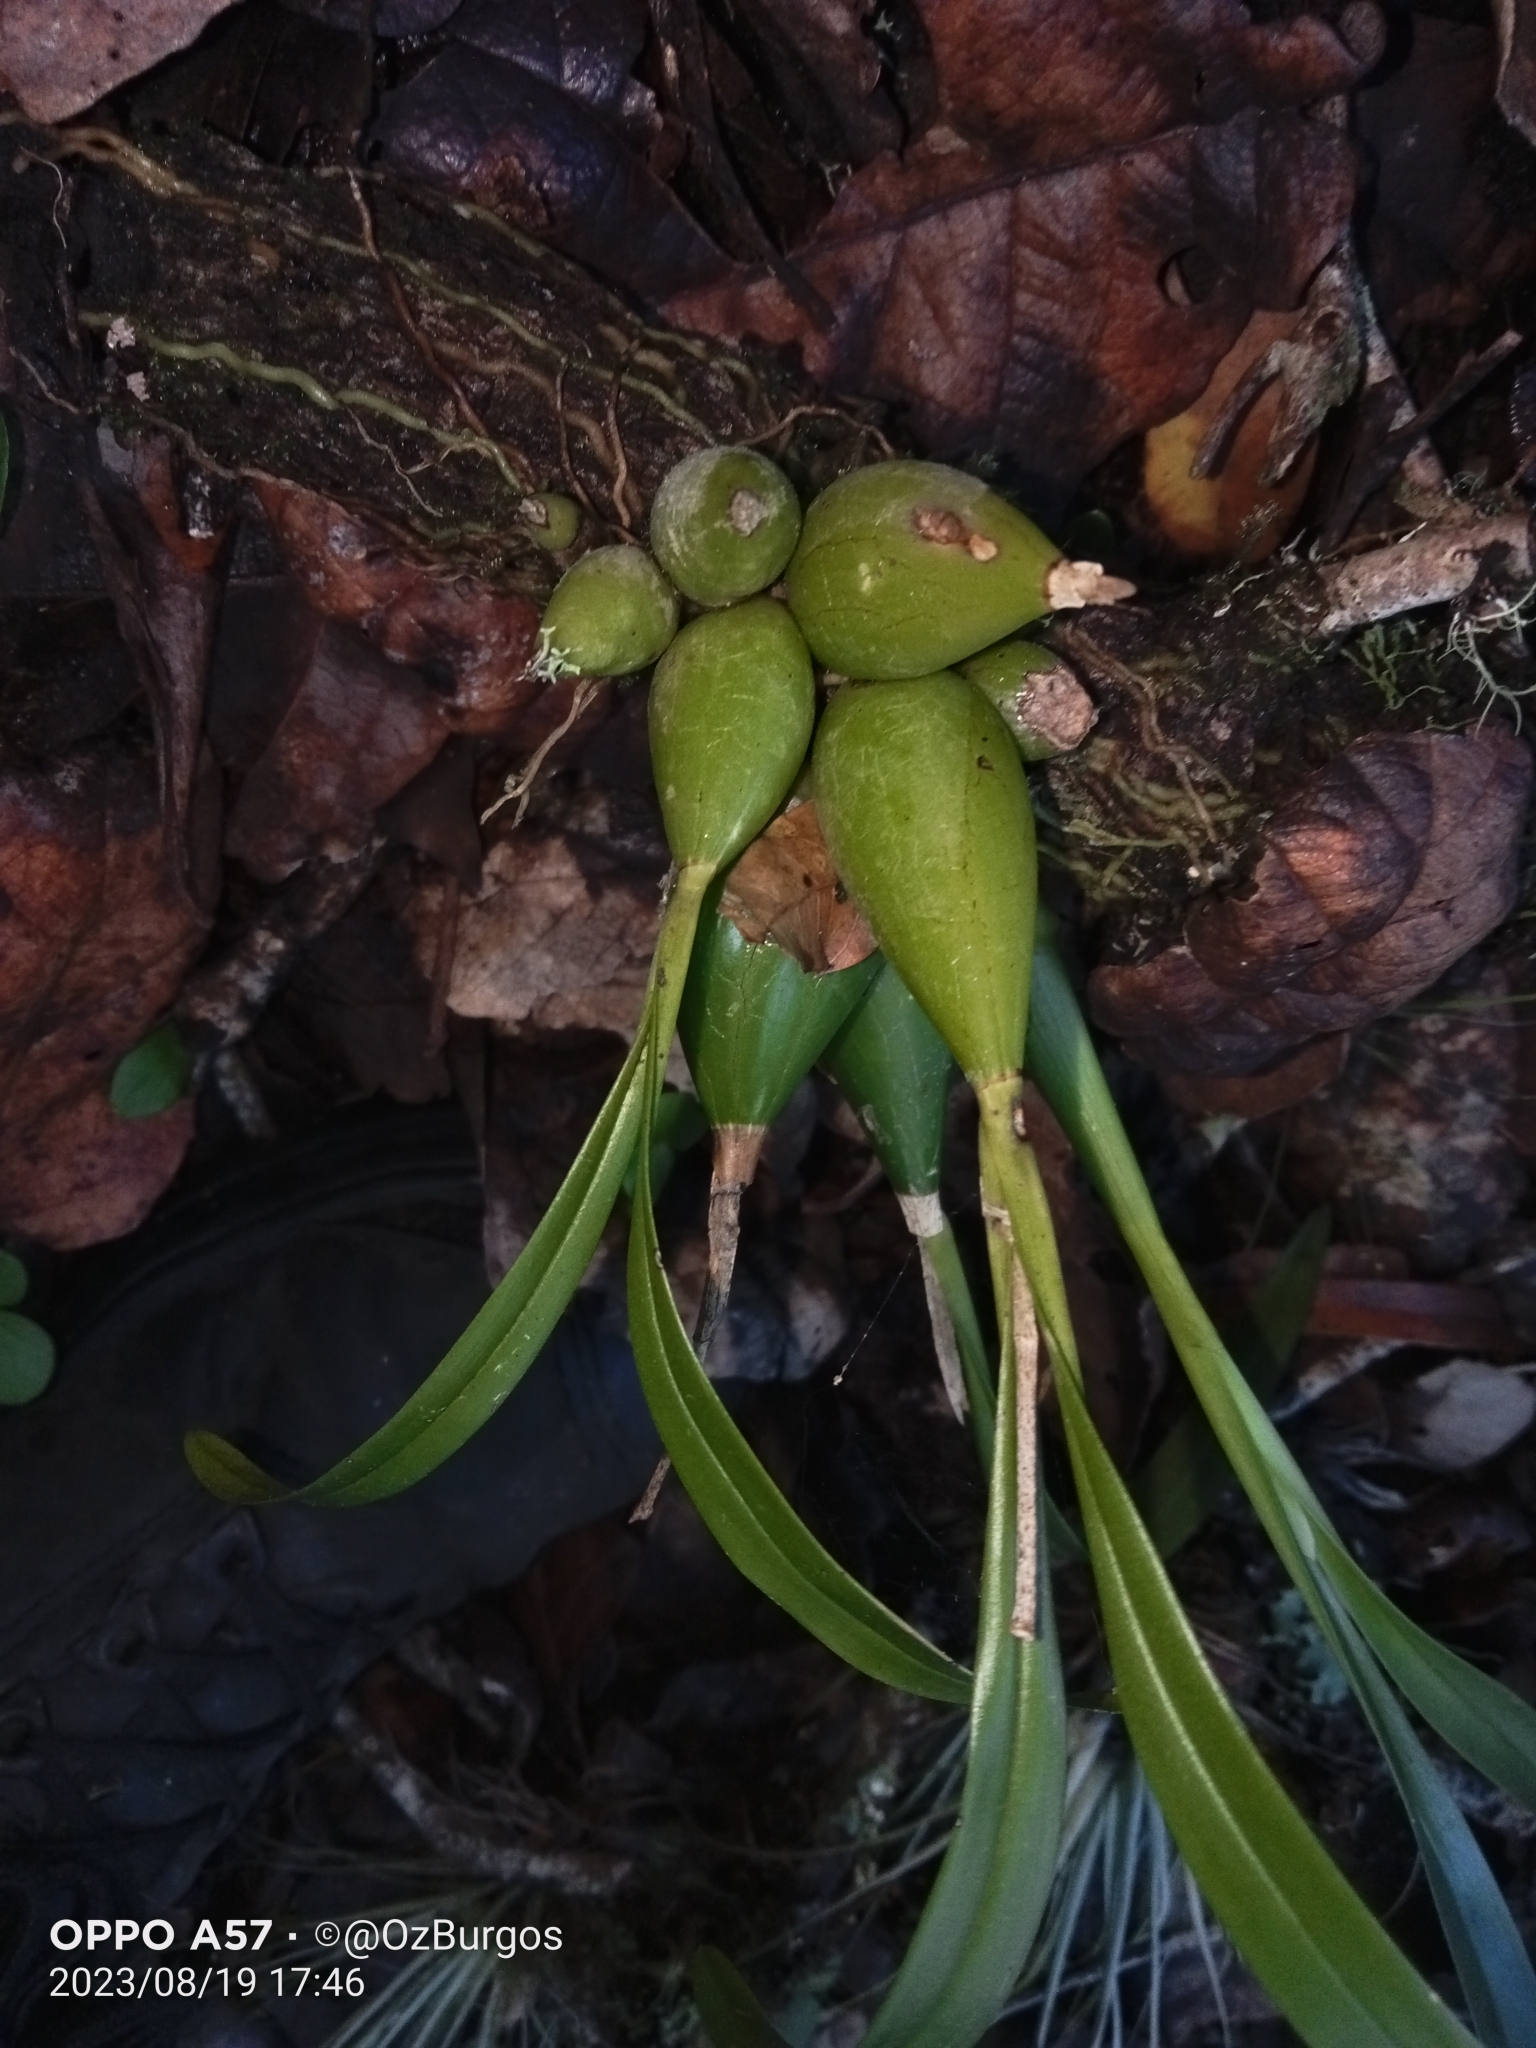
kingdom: Plantae
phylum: Tracheophyta
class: Liliopsida
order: Asparagales
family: Orchidaceae
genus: Prosthechea
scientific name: Prosthechea ochracea
